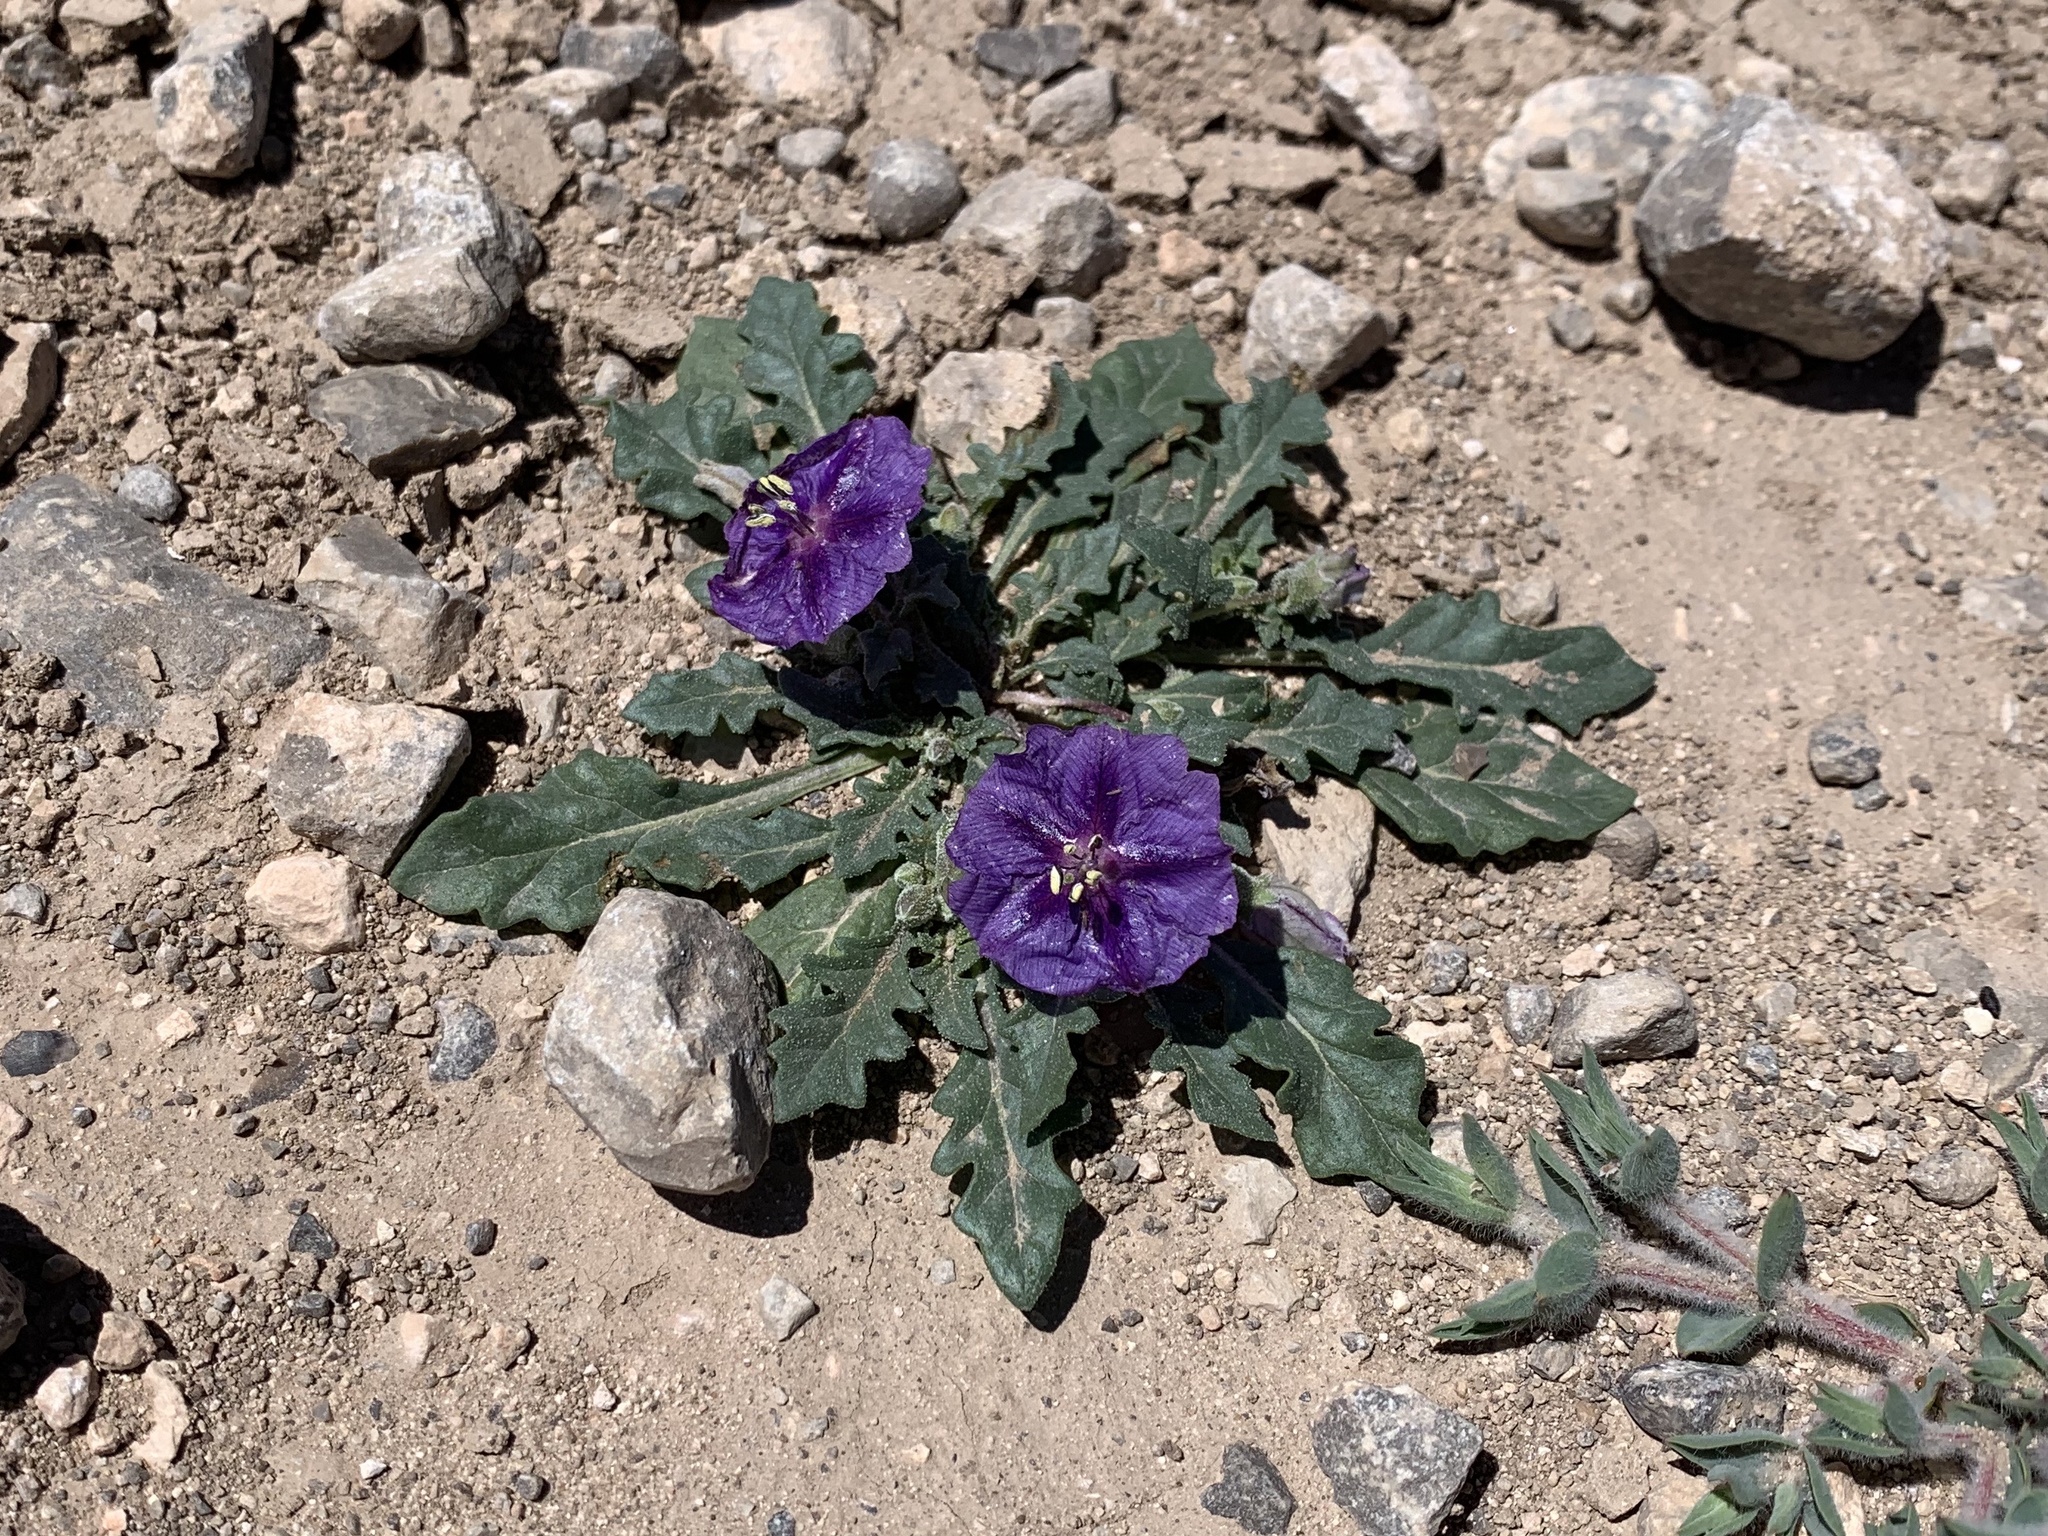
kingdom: Plantae
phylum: Tracheophyta
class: Magnoliopsida
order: Solanales
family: Solanaceae
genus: Quincula
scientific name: Quincula lobata
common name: Purple-ground-cherry
